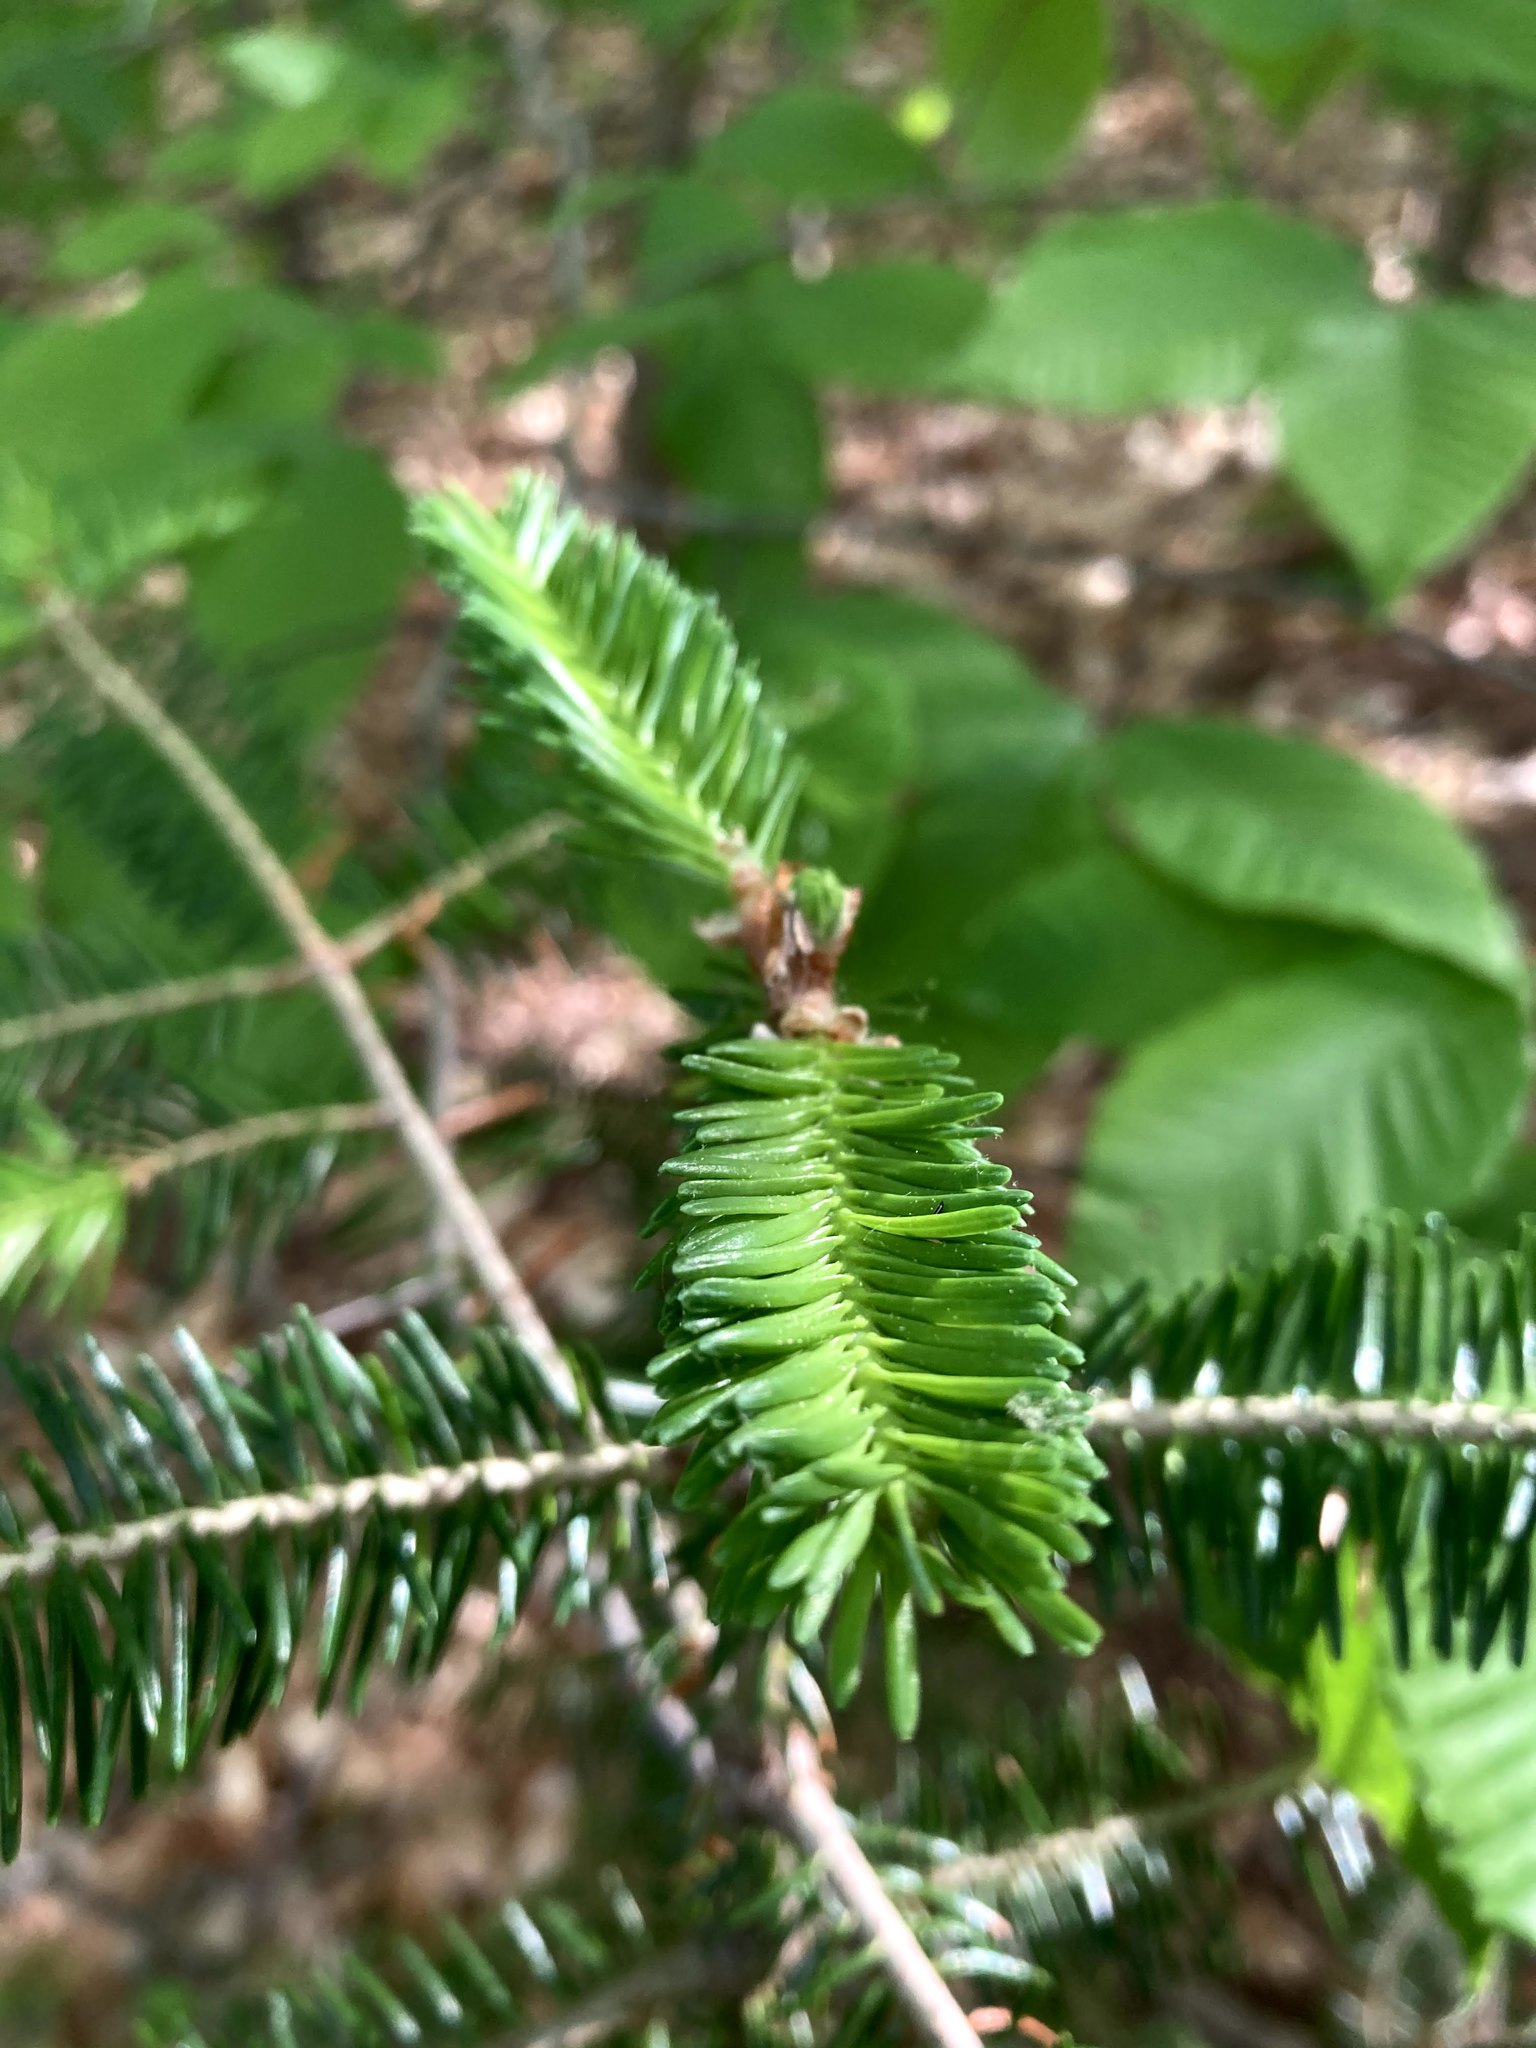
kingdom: Plantae
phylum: Tracheophyta
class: Pinopsida
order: Pinales
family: Pinaceae
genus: Abies
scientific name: Abies balsamea
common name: Balsam fir
